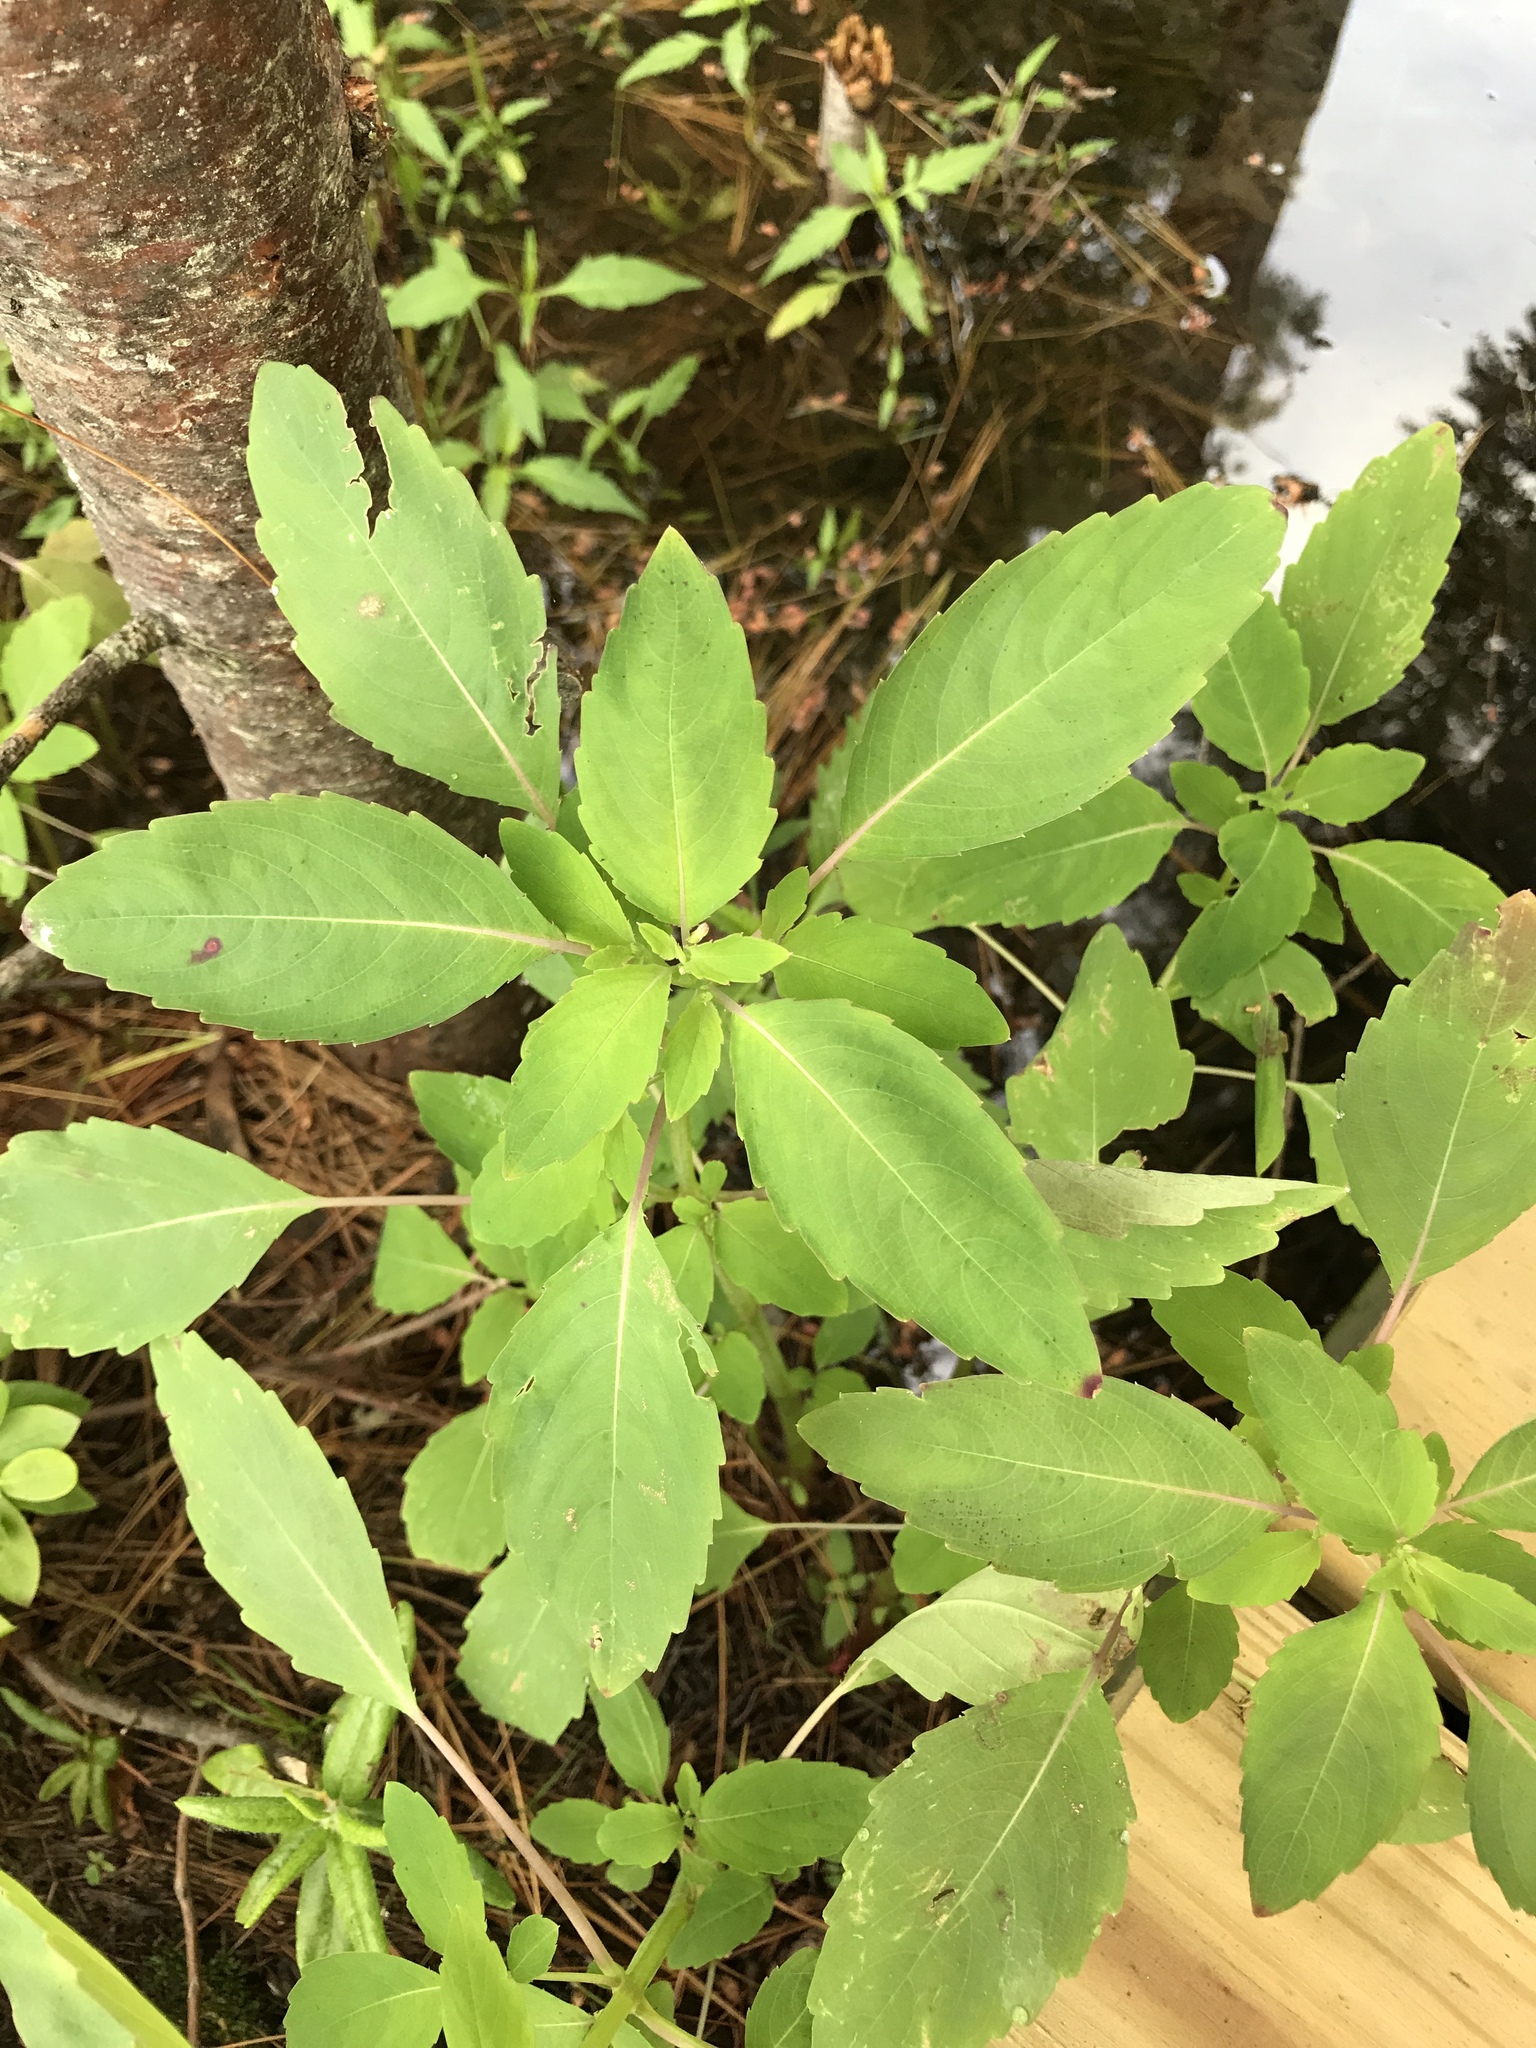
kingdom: Plantae
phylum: Tracheophyta
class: Magnoliopsida
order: Ericales
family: Balsaminaceae
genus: Impatiens
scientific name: Impatiens capensis
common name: Orange balsam
